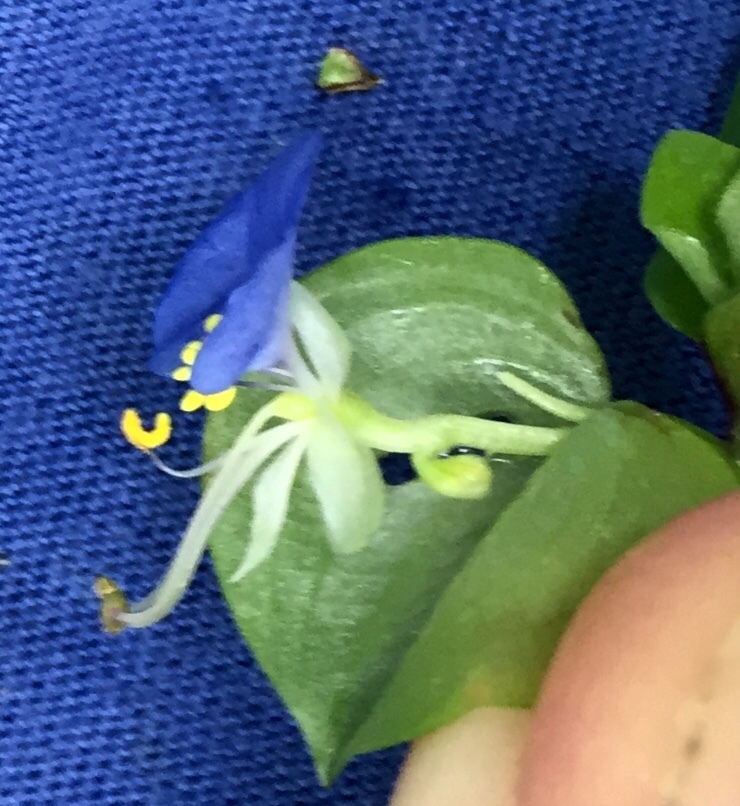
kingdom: Plantae
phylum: Tracheophyta
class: Liliopsida
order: Commelinales
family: Commelinaceae
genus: Commelina
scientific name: Commelina communis
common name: Asiatic dayflower
